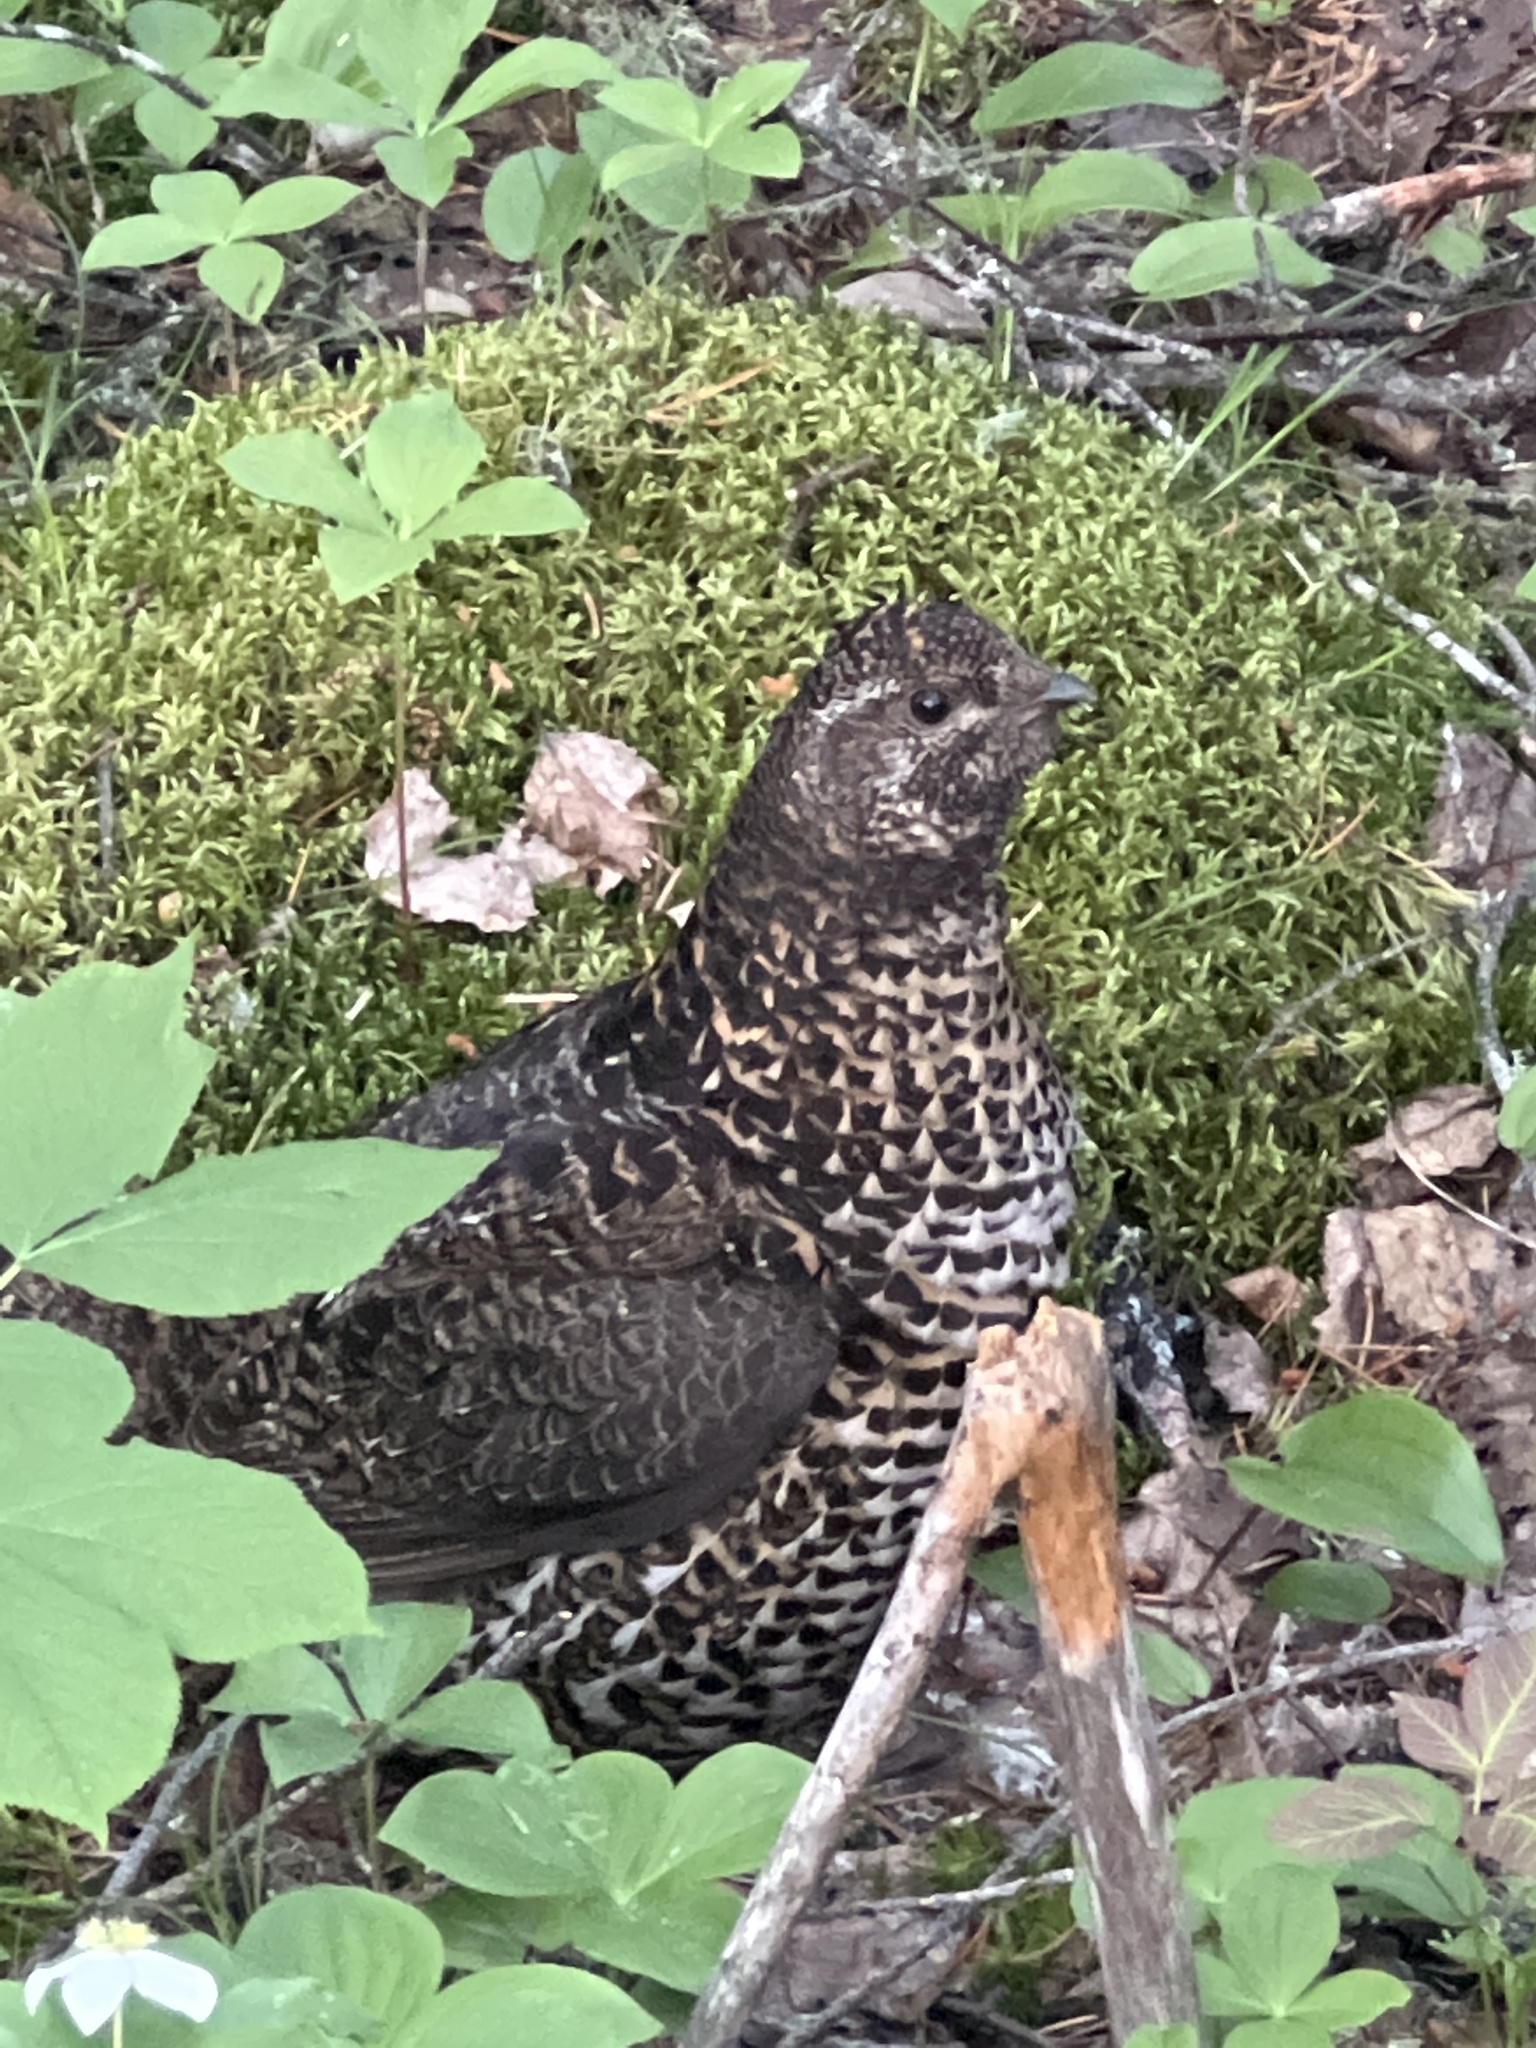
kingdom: Animalia
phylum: Chordata
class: Aves
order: Galliformes
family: Phasianidae
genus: Canachites
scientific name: Canachites canadensis
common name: Spruce grouse
